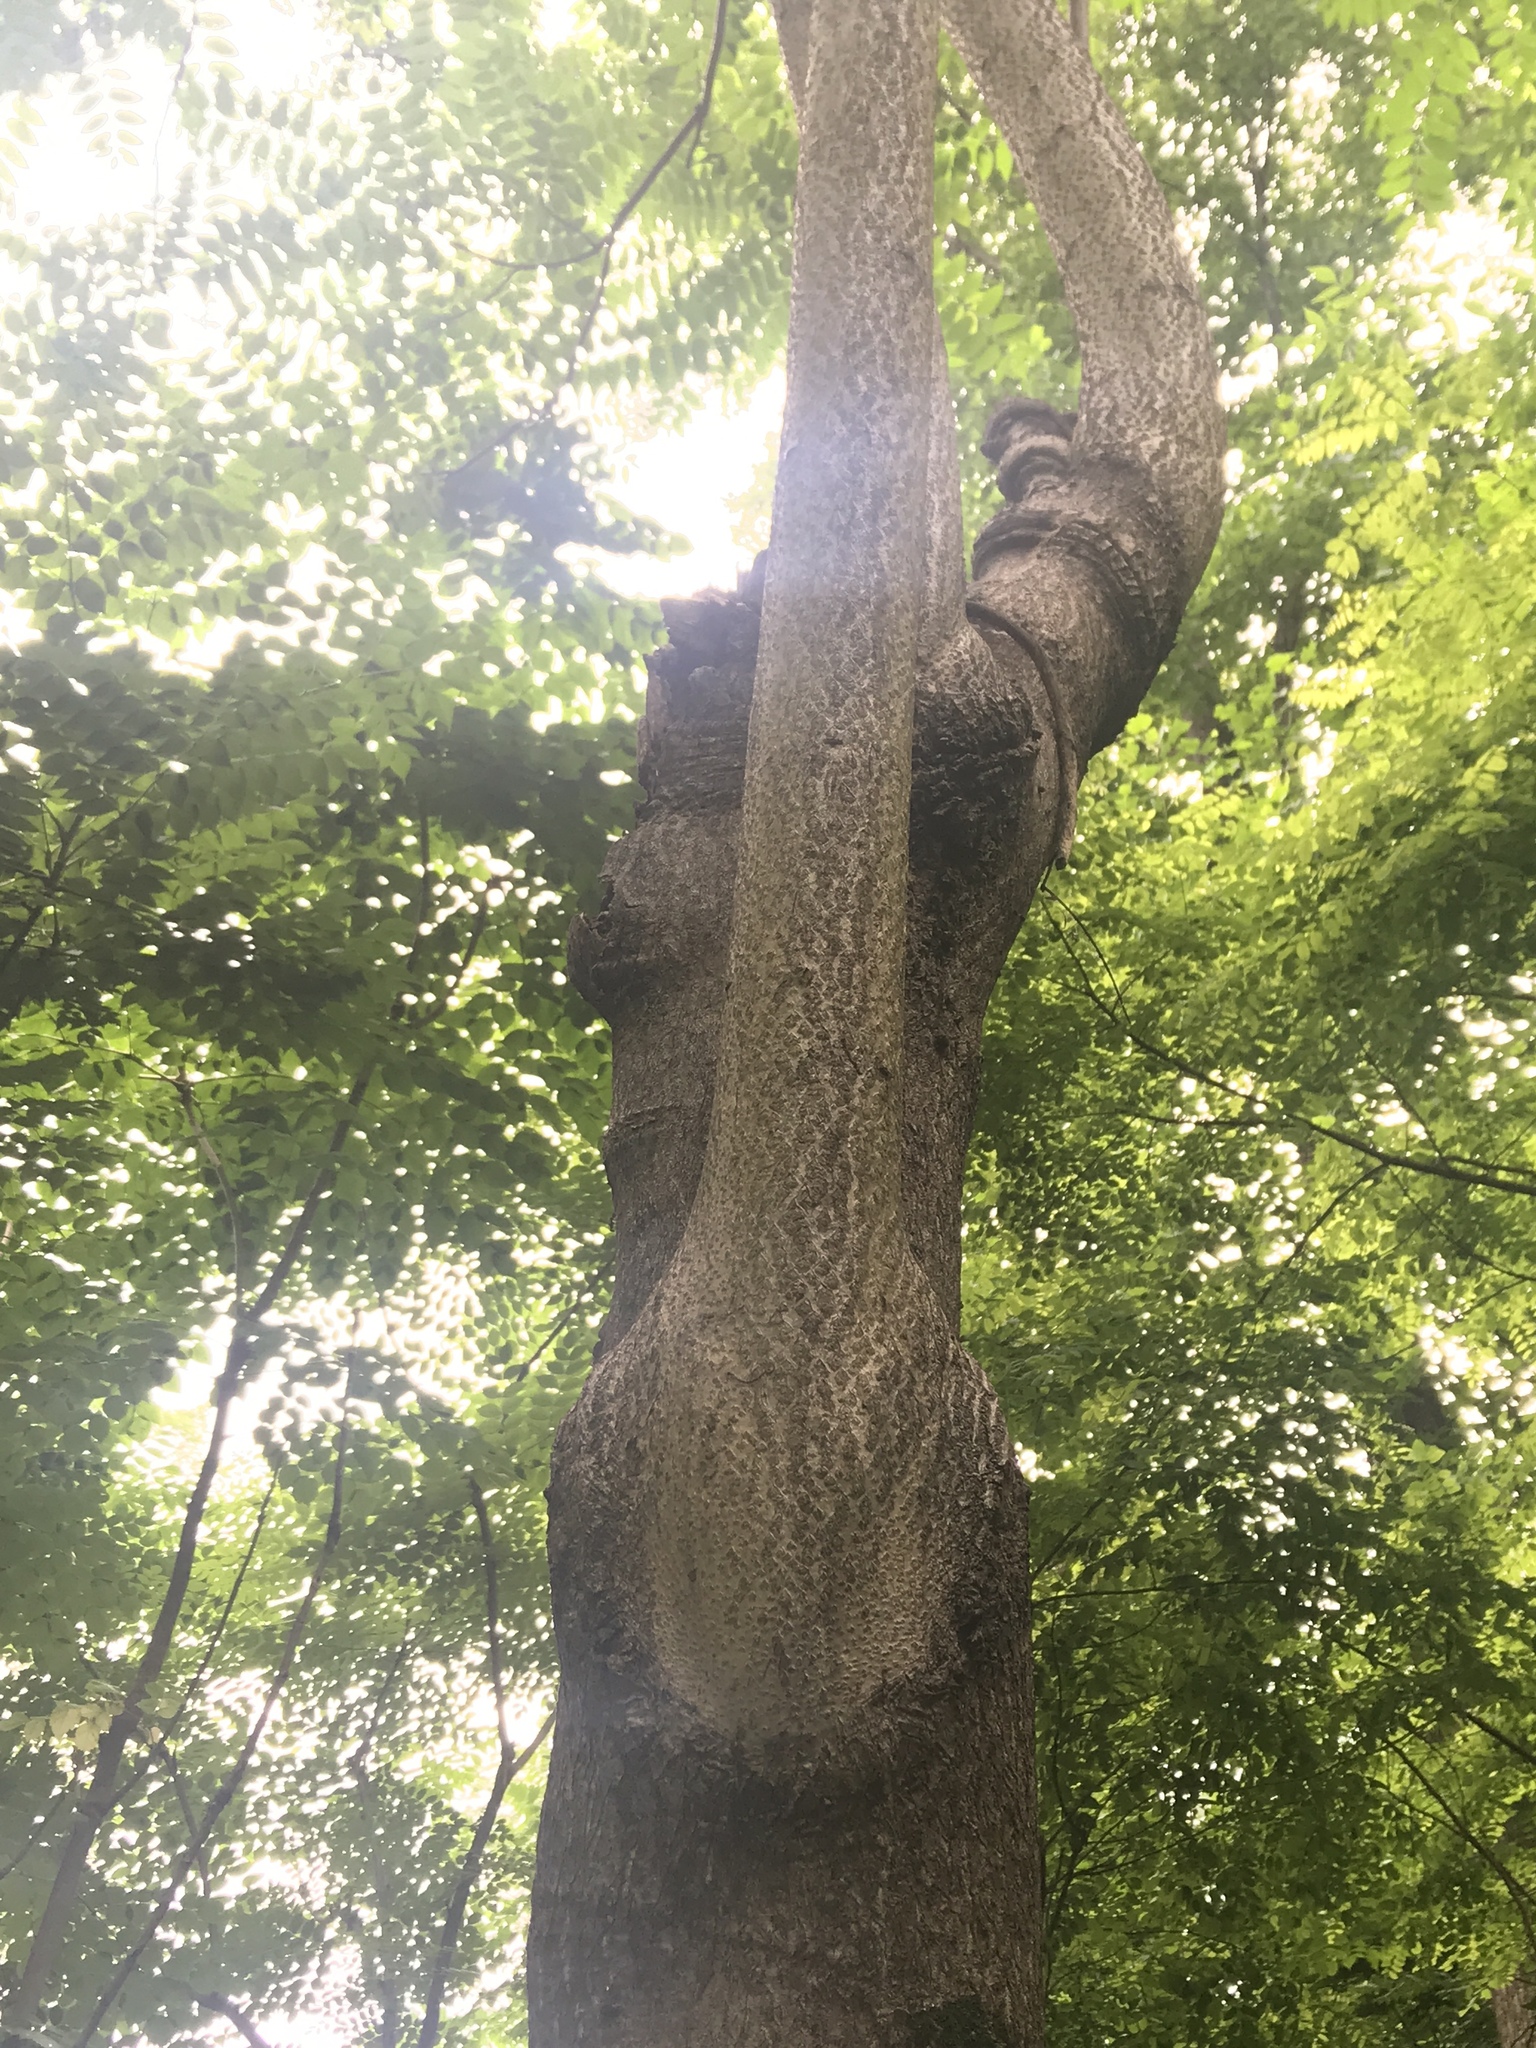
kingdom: Plantae
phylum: Tracheophyta
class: Magnoliopsida
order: Sapindales
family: Simaroubaceae
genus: Ailanthus
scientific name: Ailanthus altissima
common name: Tree-of-heaven
